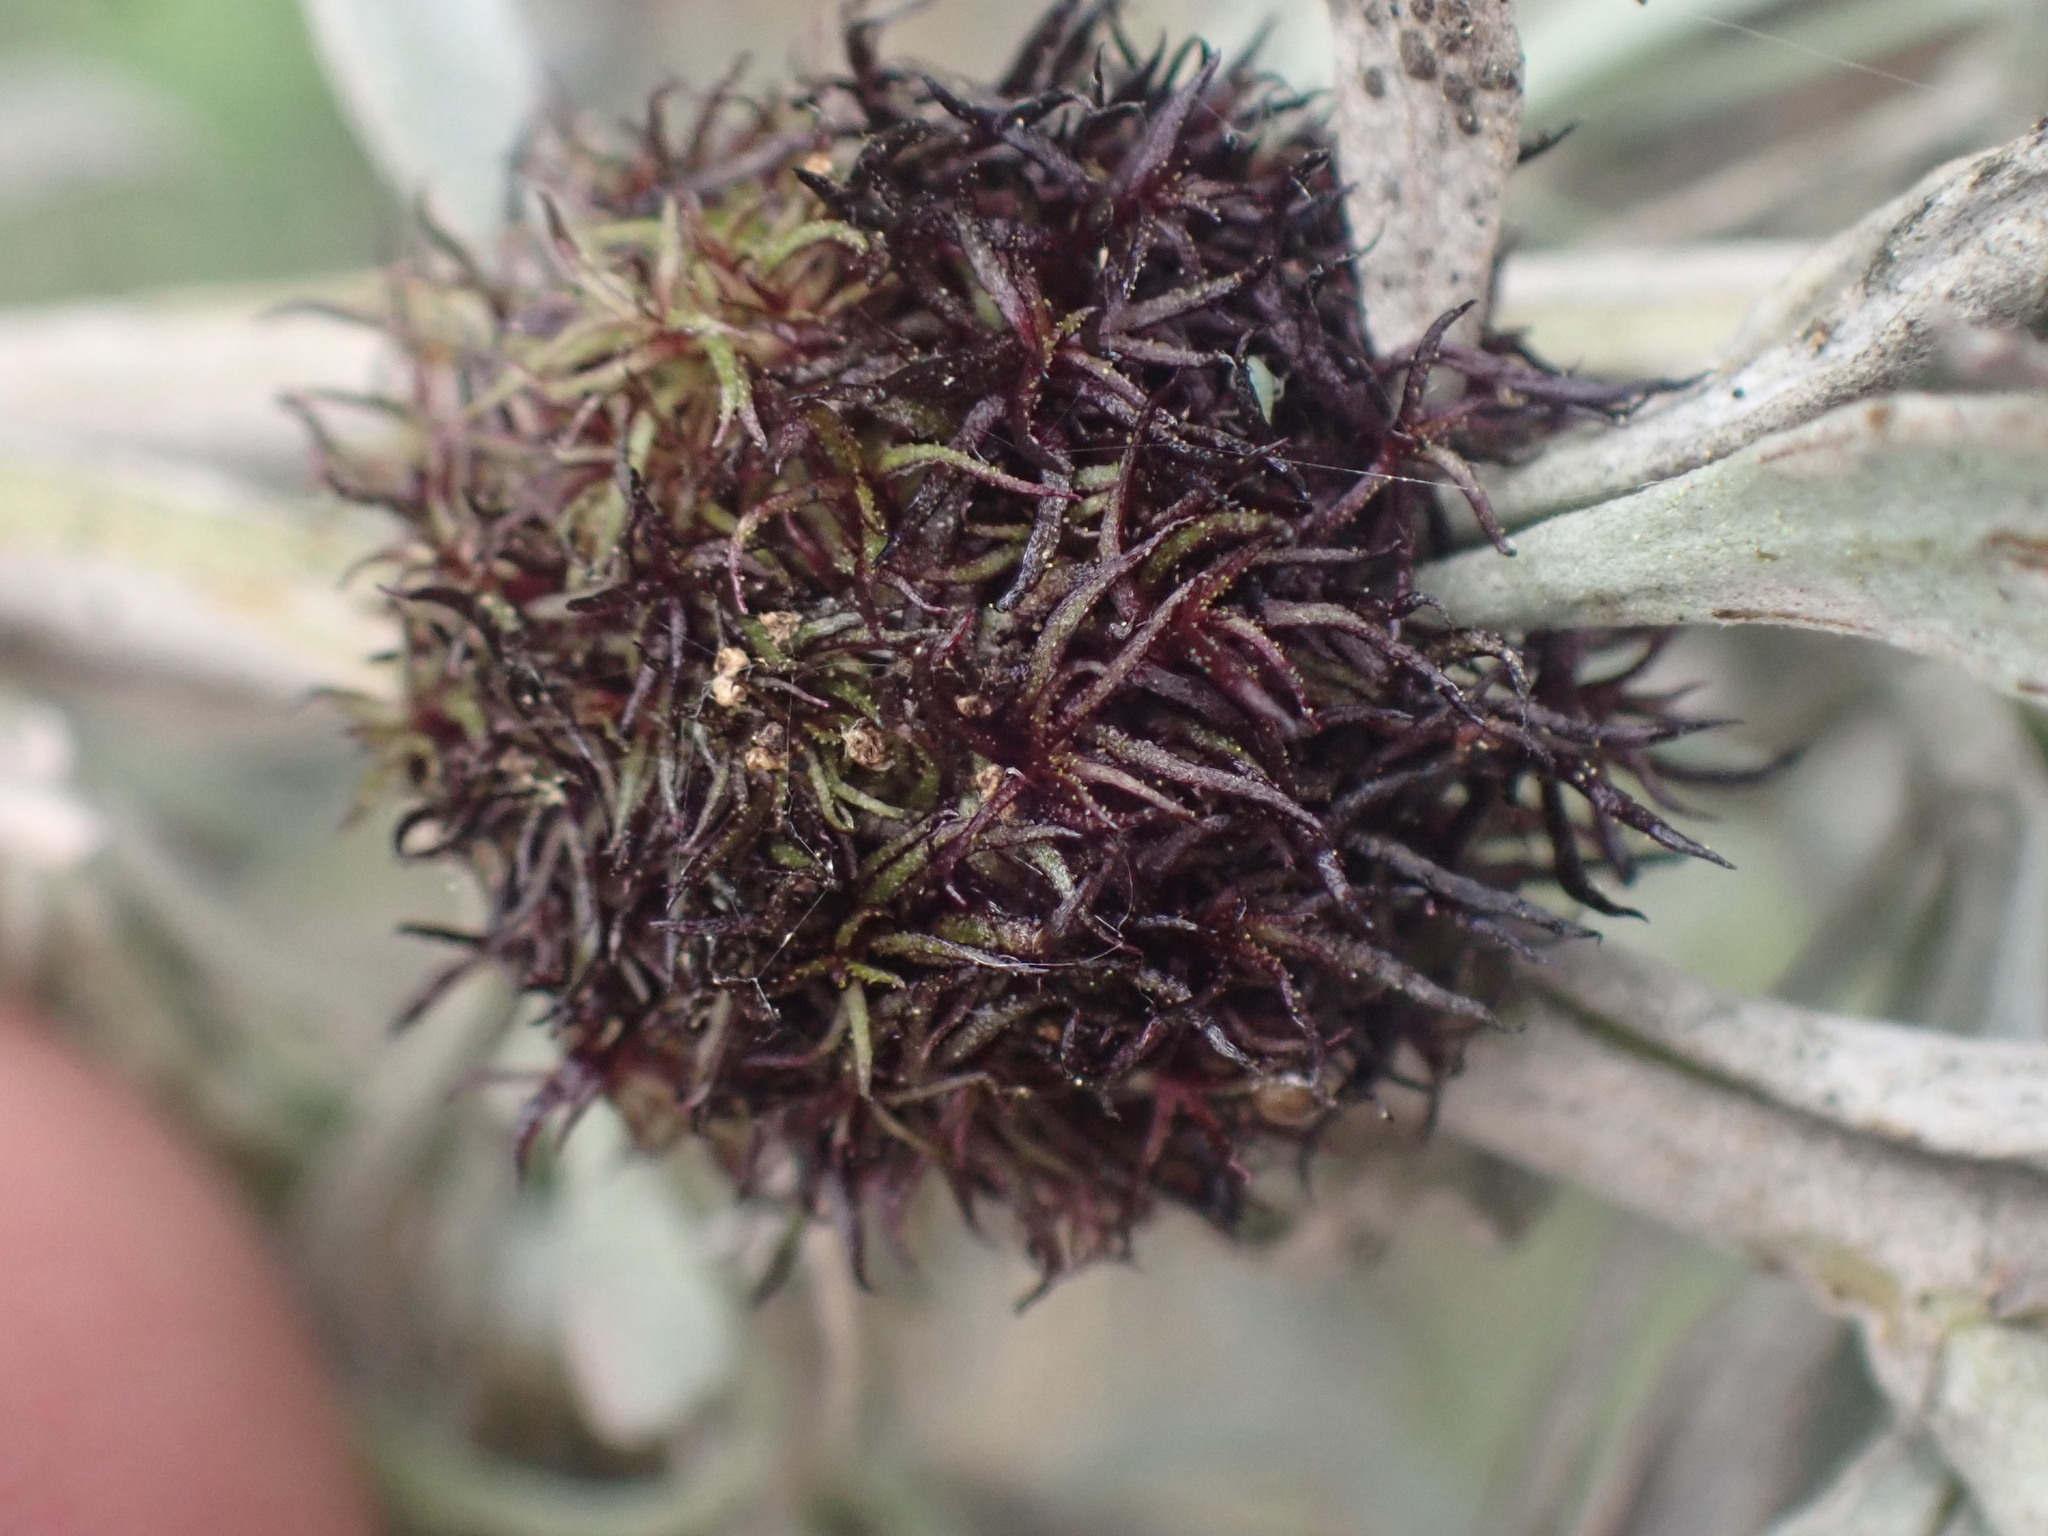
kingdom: Animalia
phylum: Arthropoda
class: Insecta
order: Diptera
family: Cecidomyiidae
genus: Rhopalomyia
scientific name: Rhopalomyia medusa
